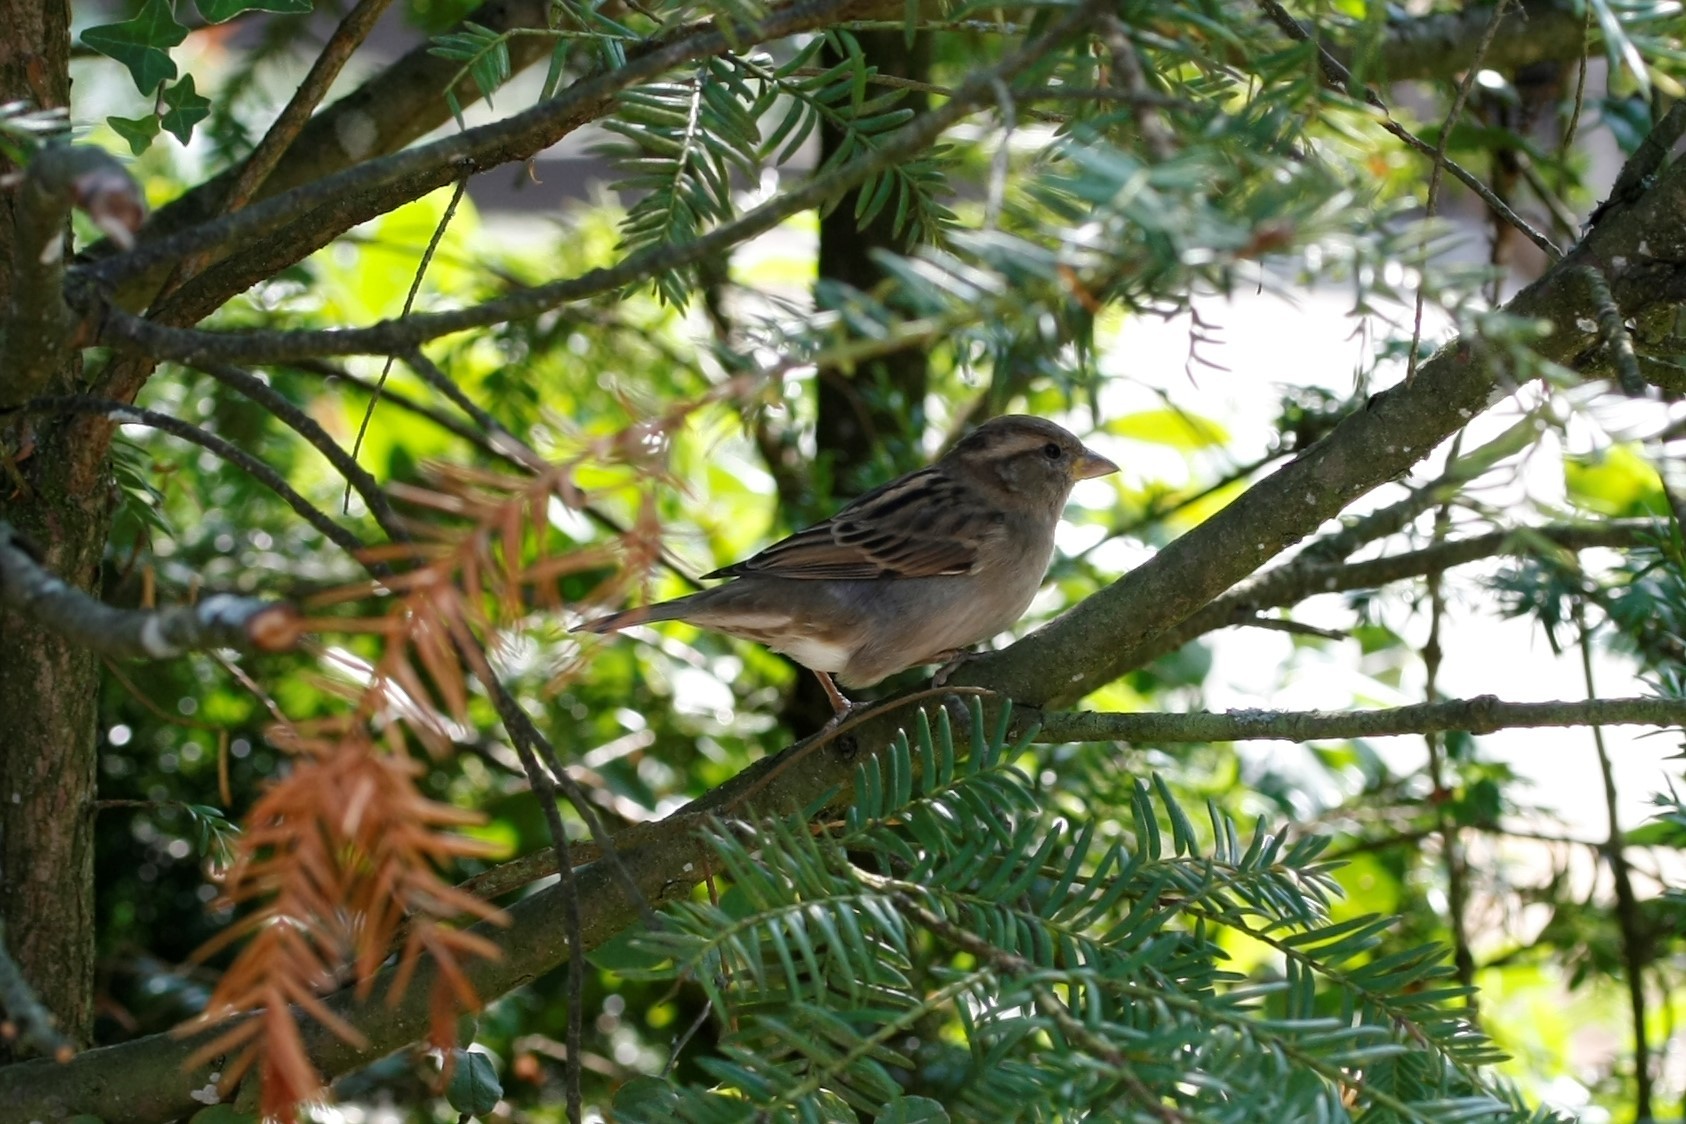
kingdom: Animalia
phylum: Chordata
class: Aves
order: Passeriformes
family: Passeridae
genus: Passer
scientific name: Passer domesticus
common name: House sparrow
